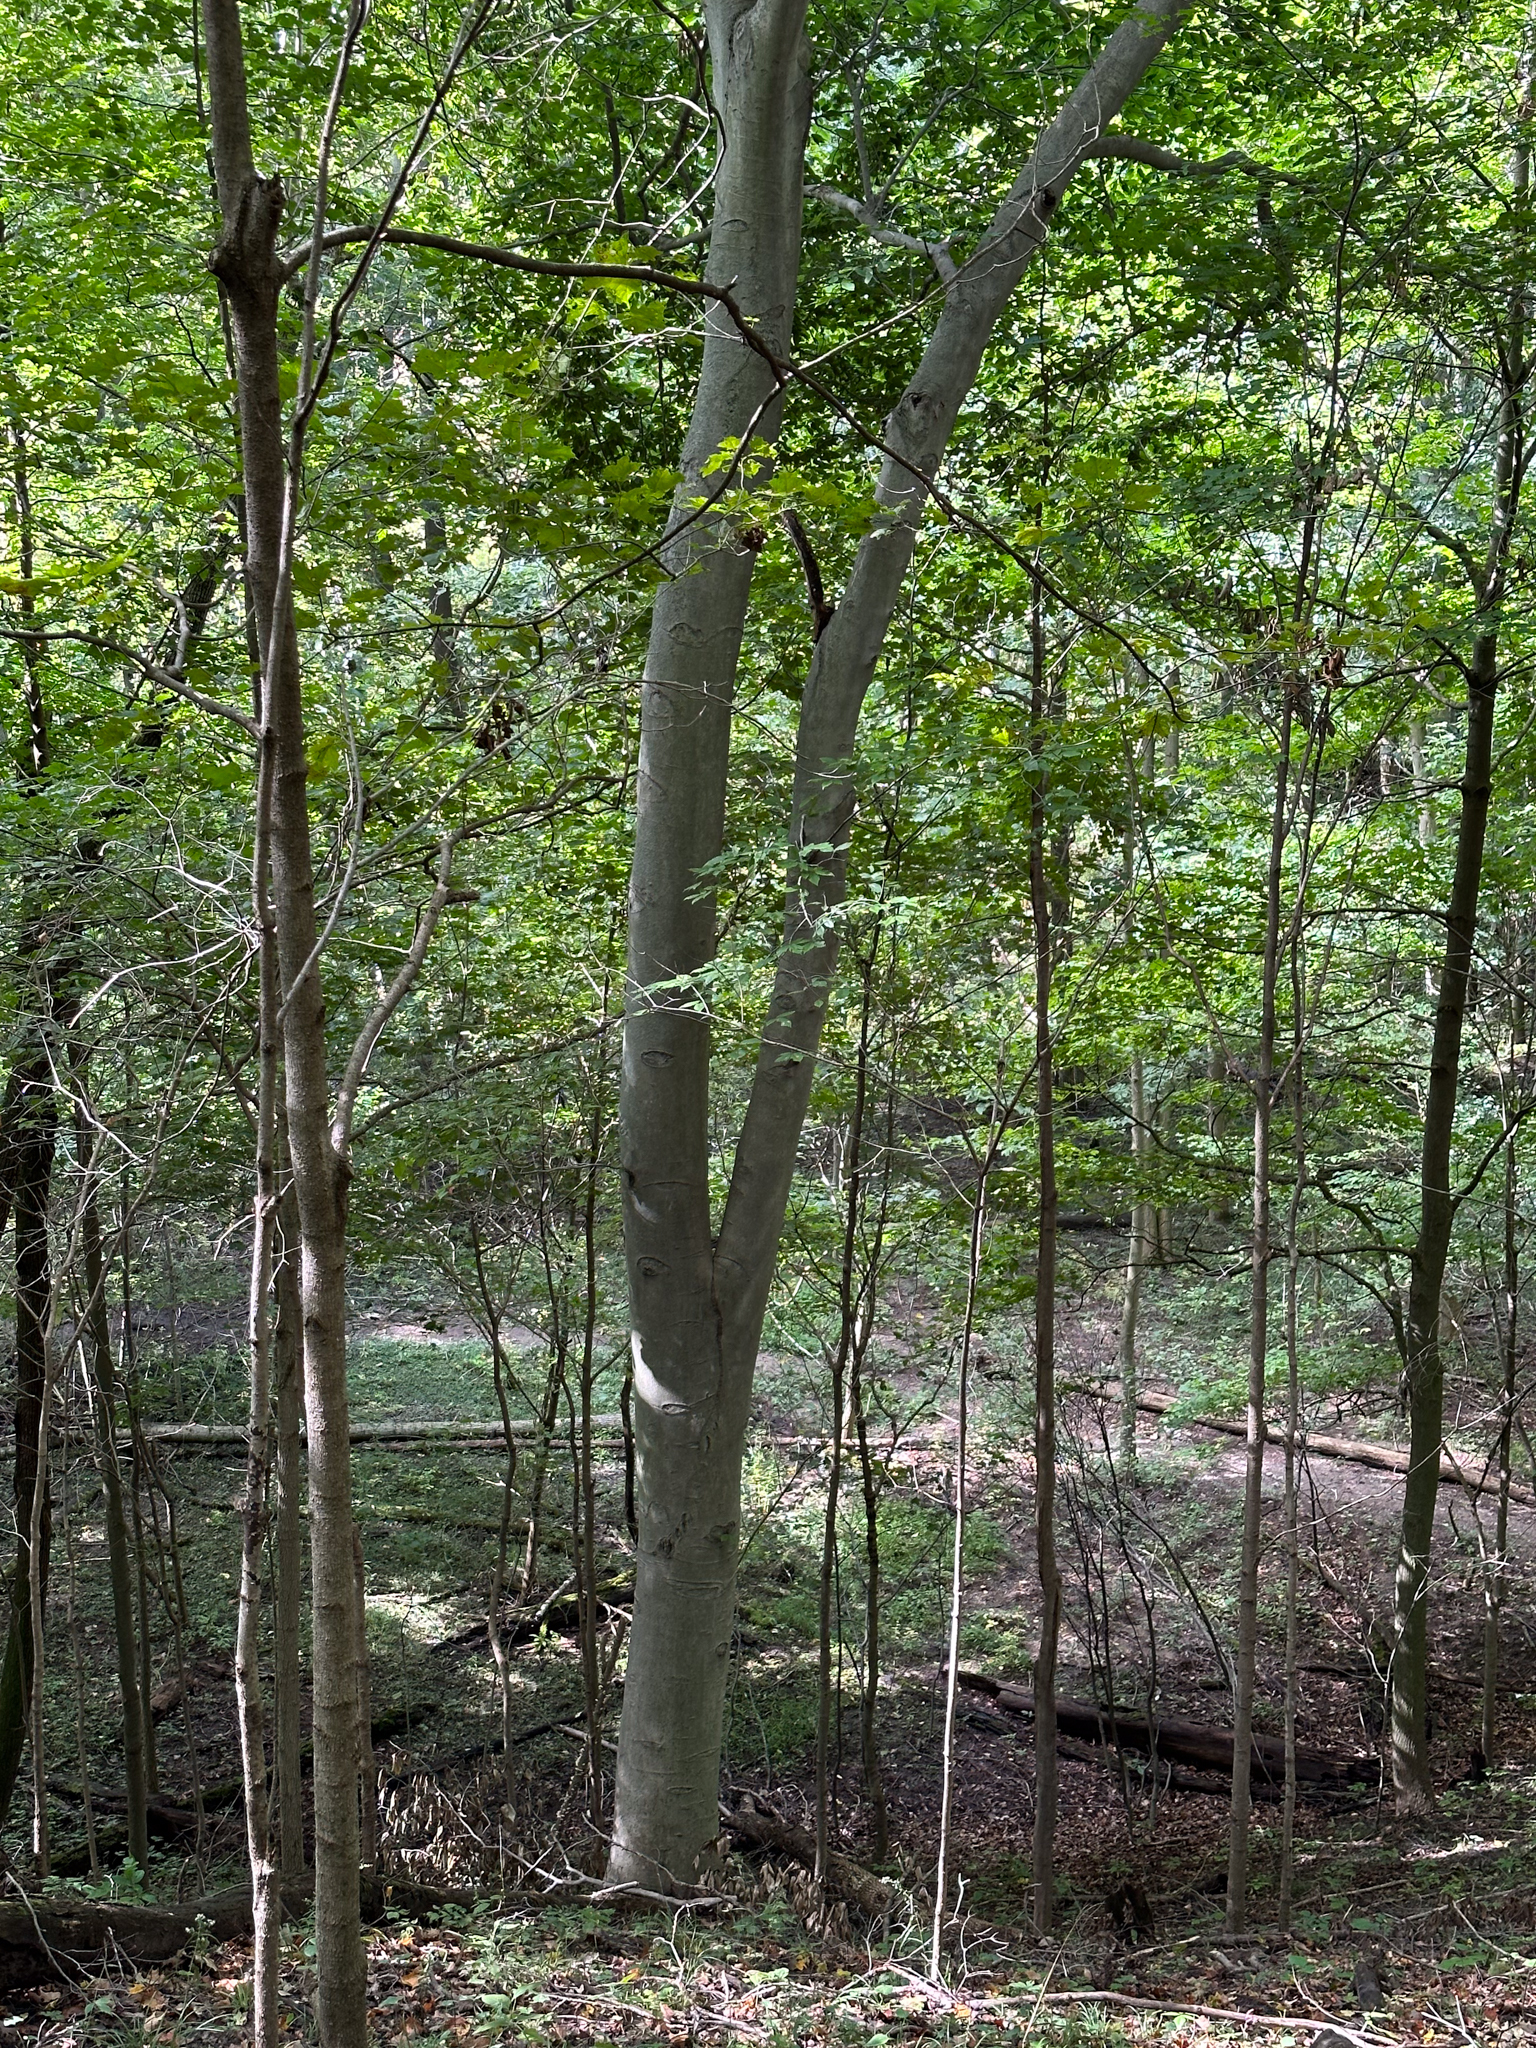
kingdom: Plantae
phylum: Tracheophyta
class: Magnoliopsida
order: Fagales
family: Fagaceae
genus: Fagus
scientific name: Fagus grandifolia
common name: American beech
